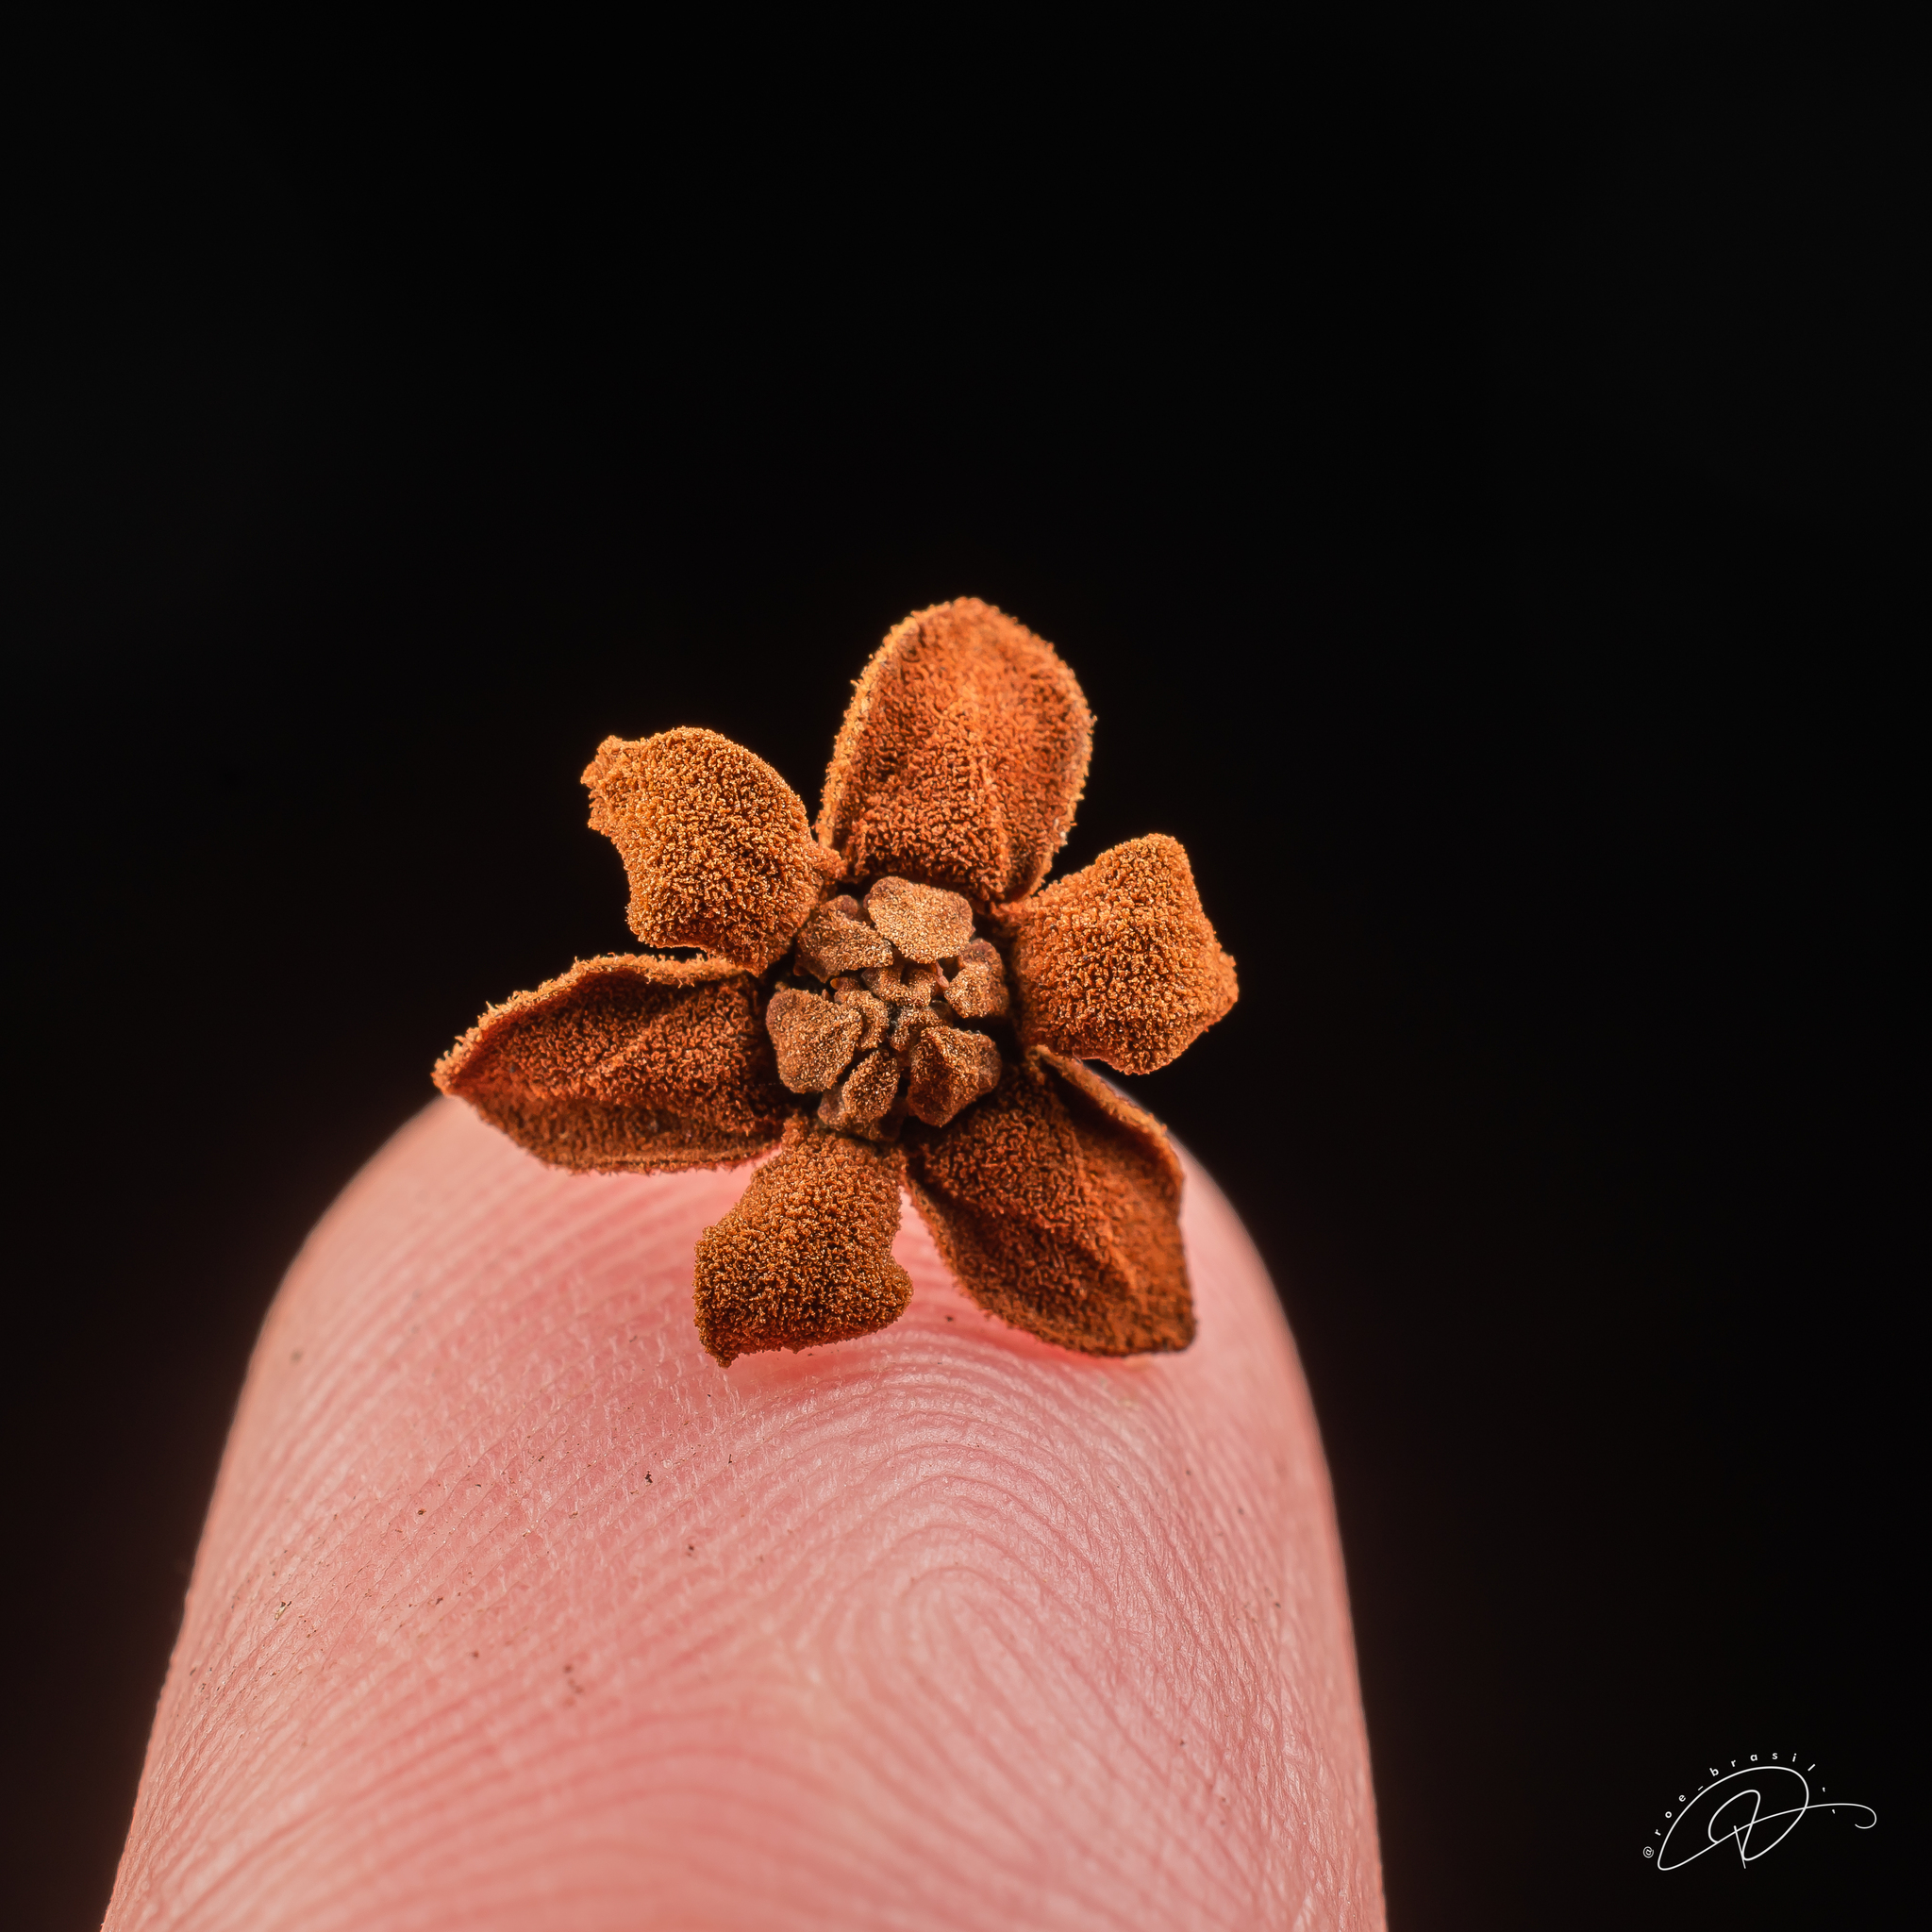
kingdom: Plantae
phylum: Tracheophyta
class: Magnoliopsida
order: Laurales
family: Lauraceae
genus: Nectandra
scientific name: Nectandra oppositifolia
